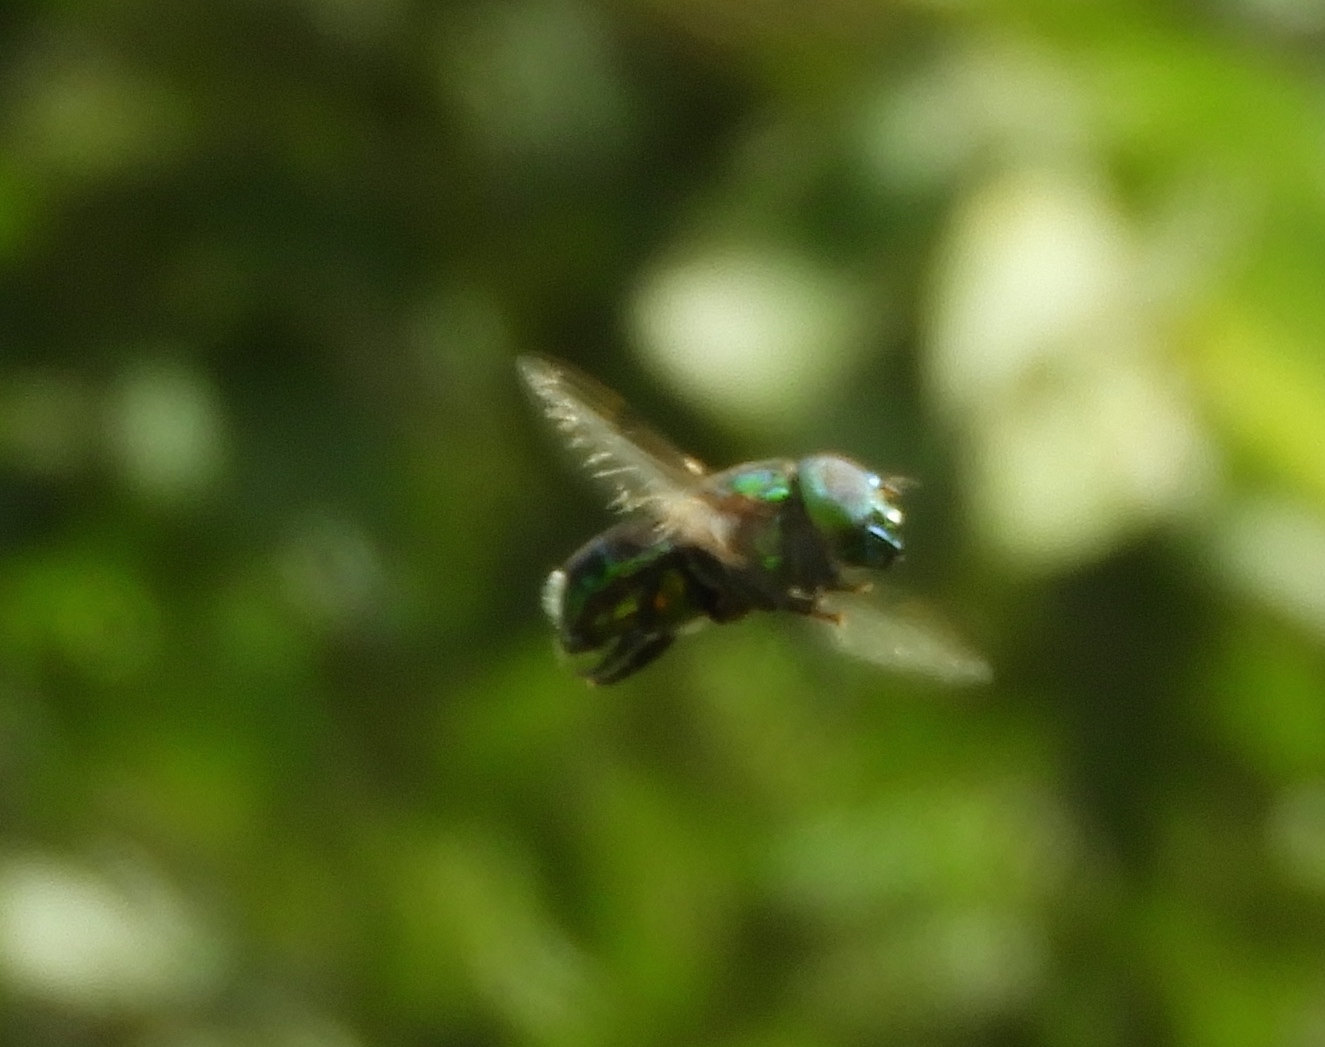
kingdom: Animalia
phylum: Arthropoda
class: Insecta
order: Diptera
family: Syrphidae
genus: Ornidia
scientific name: Ornidia
